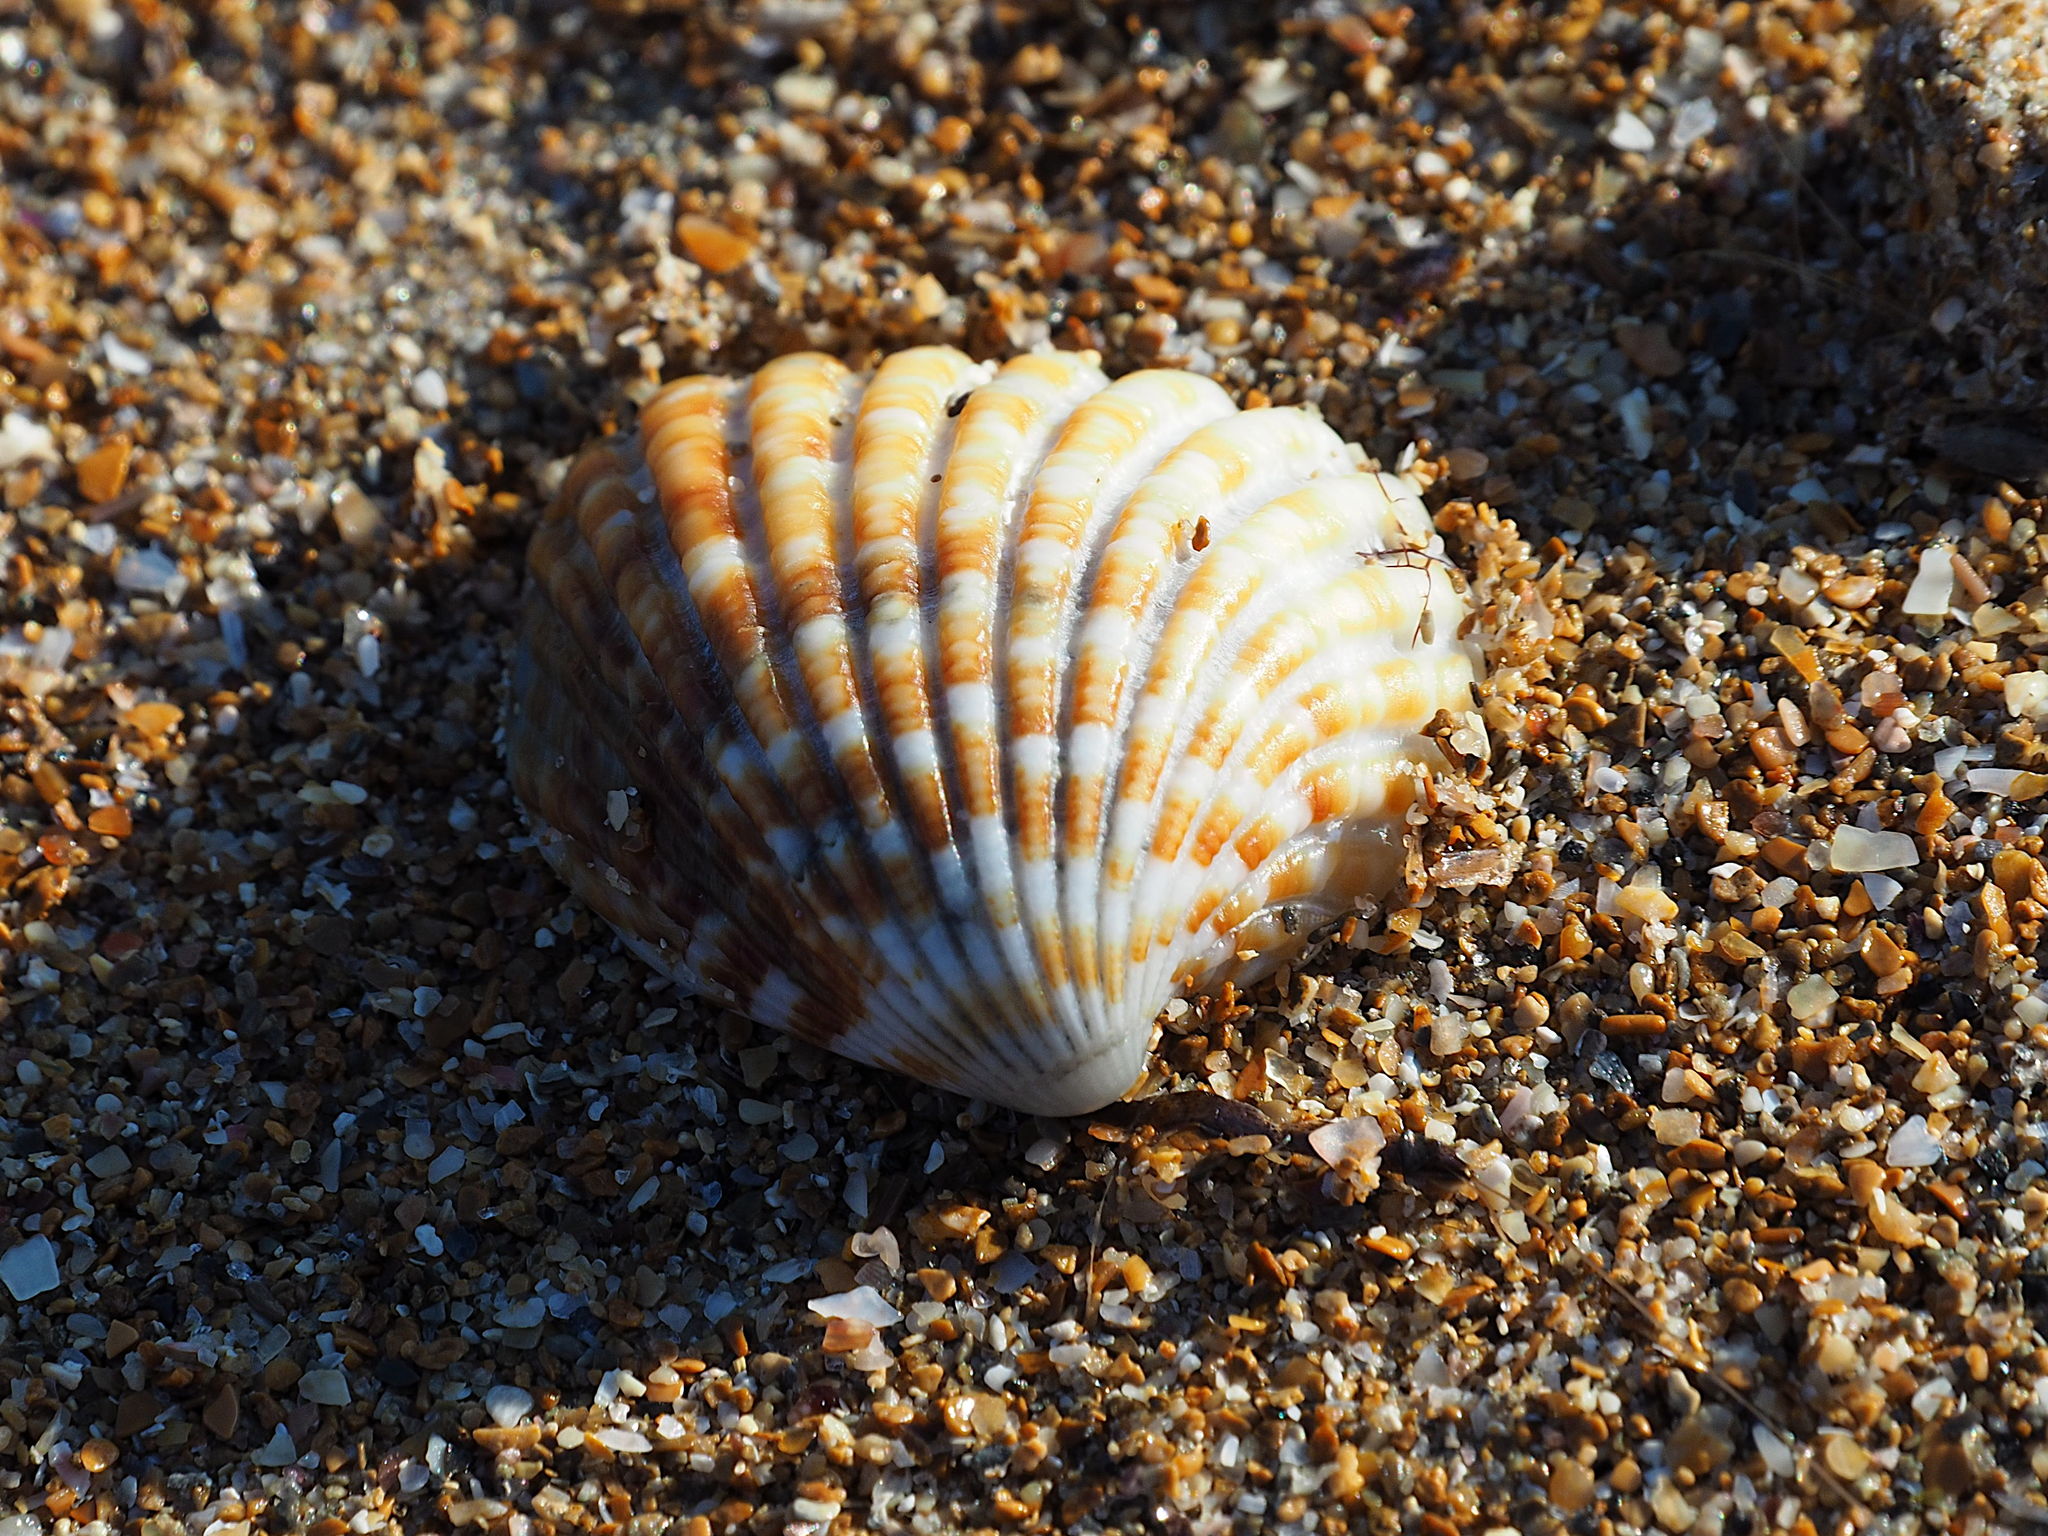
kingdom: Animalia
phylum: Mollusca
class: Bivalvia
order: Carditida
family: Carditidae
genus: Cardites
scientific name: Cardites antiquatus
